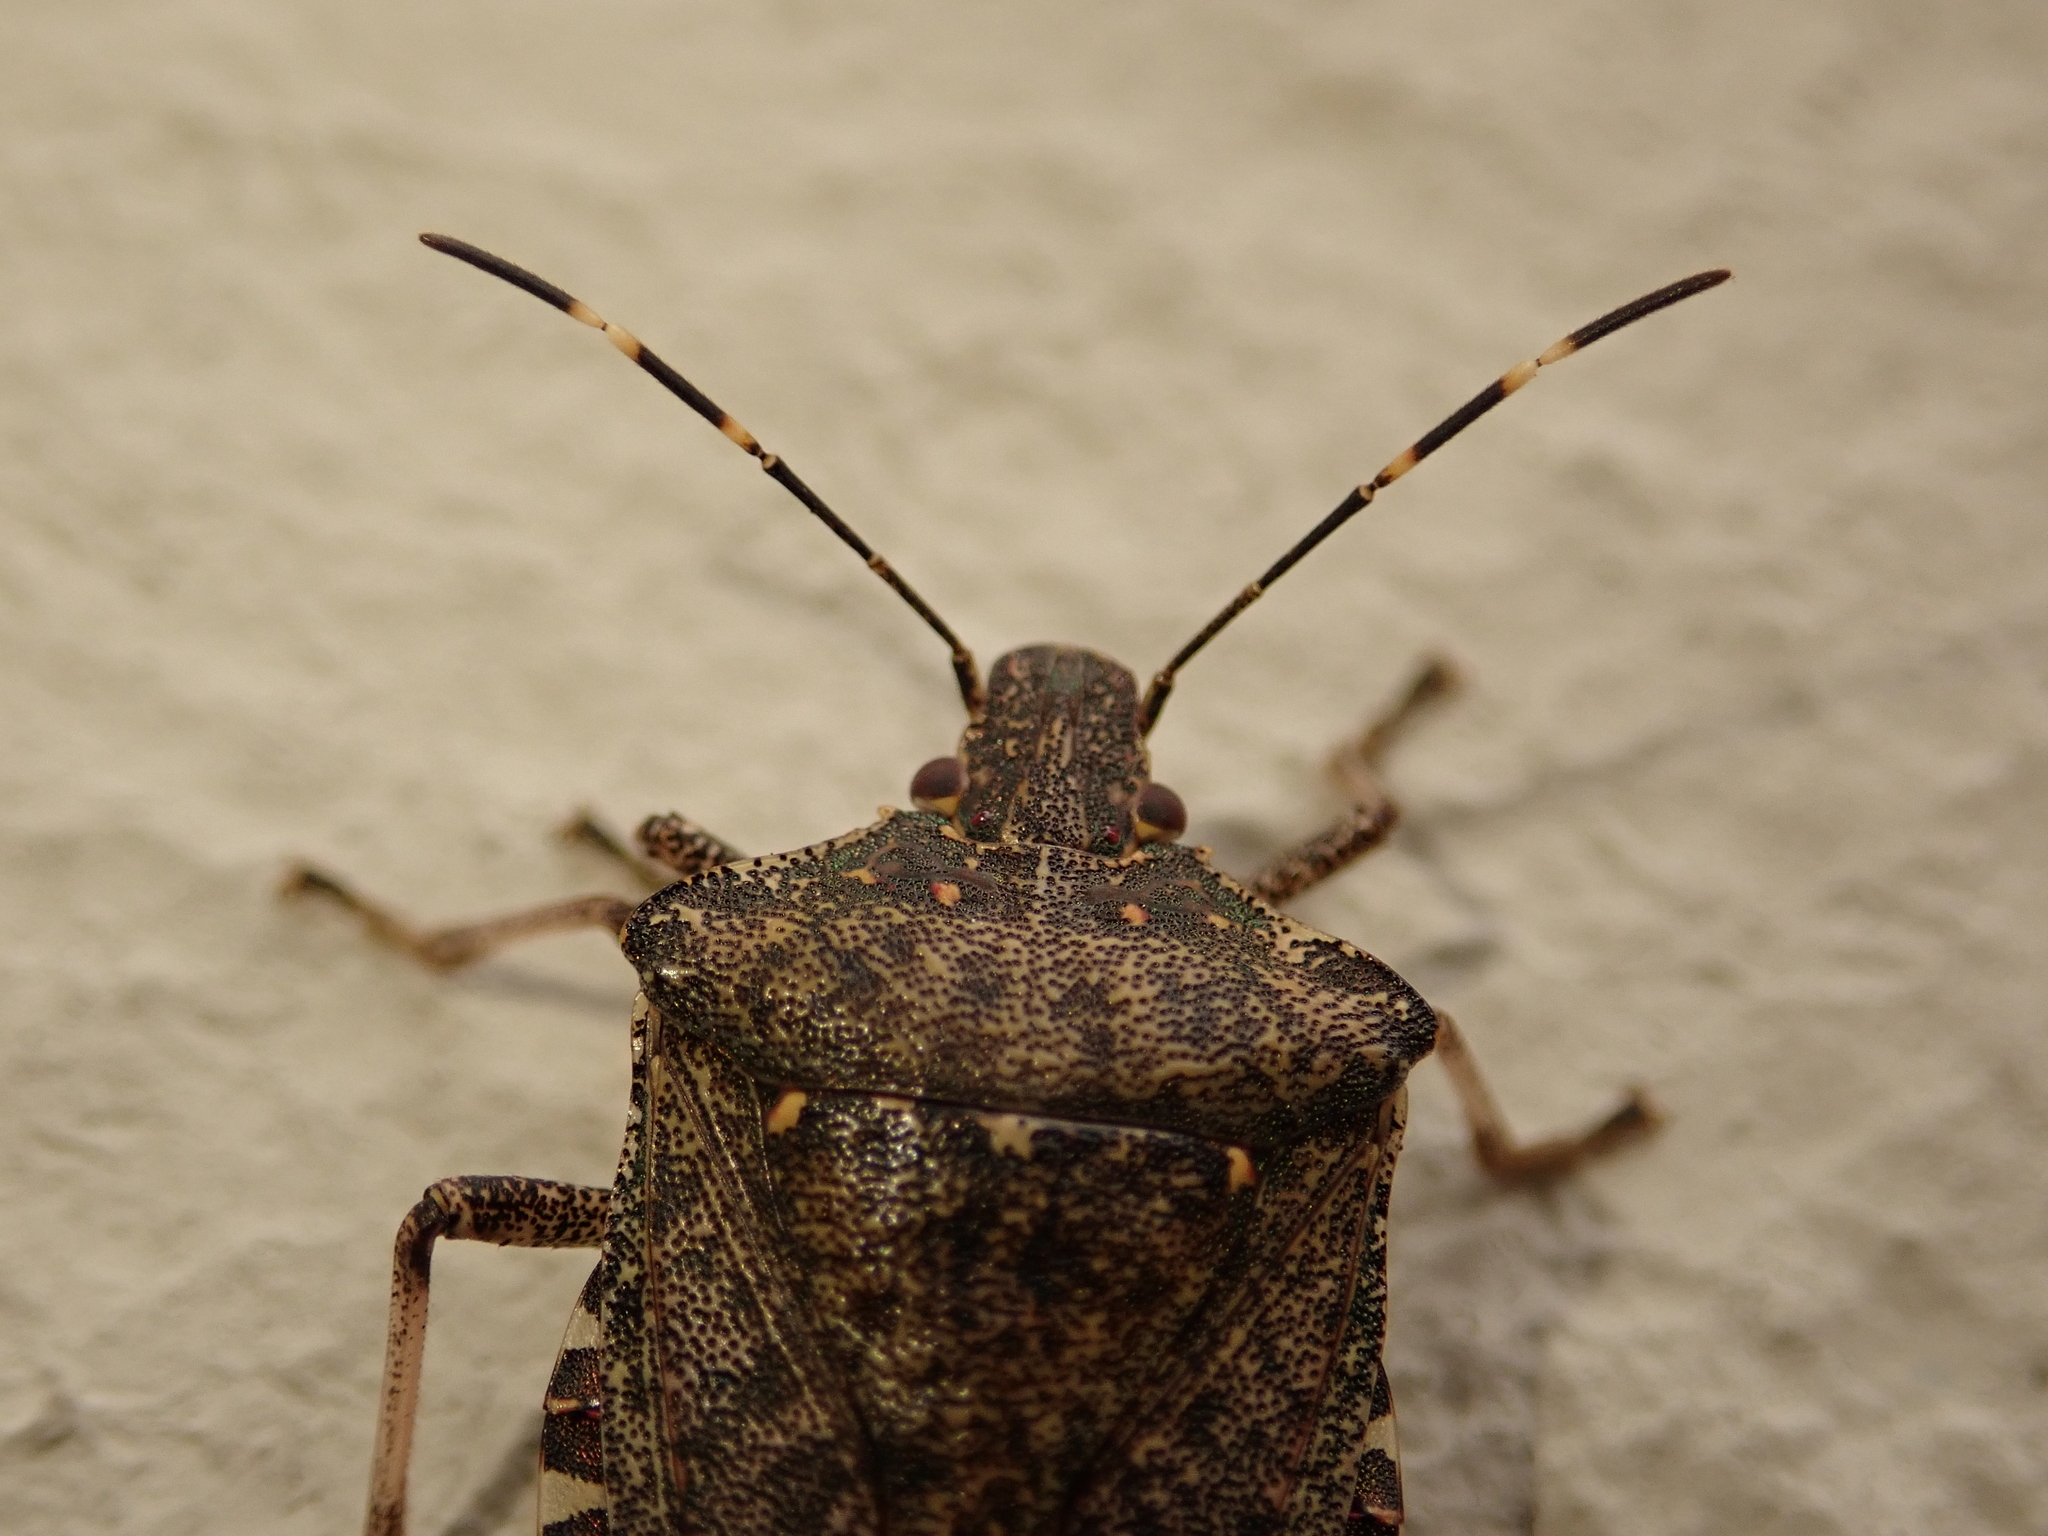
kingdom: Animalia
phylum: Arthropoda
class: Insecta
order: Hemiptera
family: Pentatomidae
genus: Halyomorpha
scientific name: Halyomorpha halys
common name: Brown marmorated stink bug
